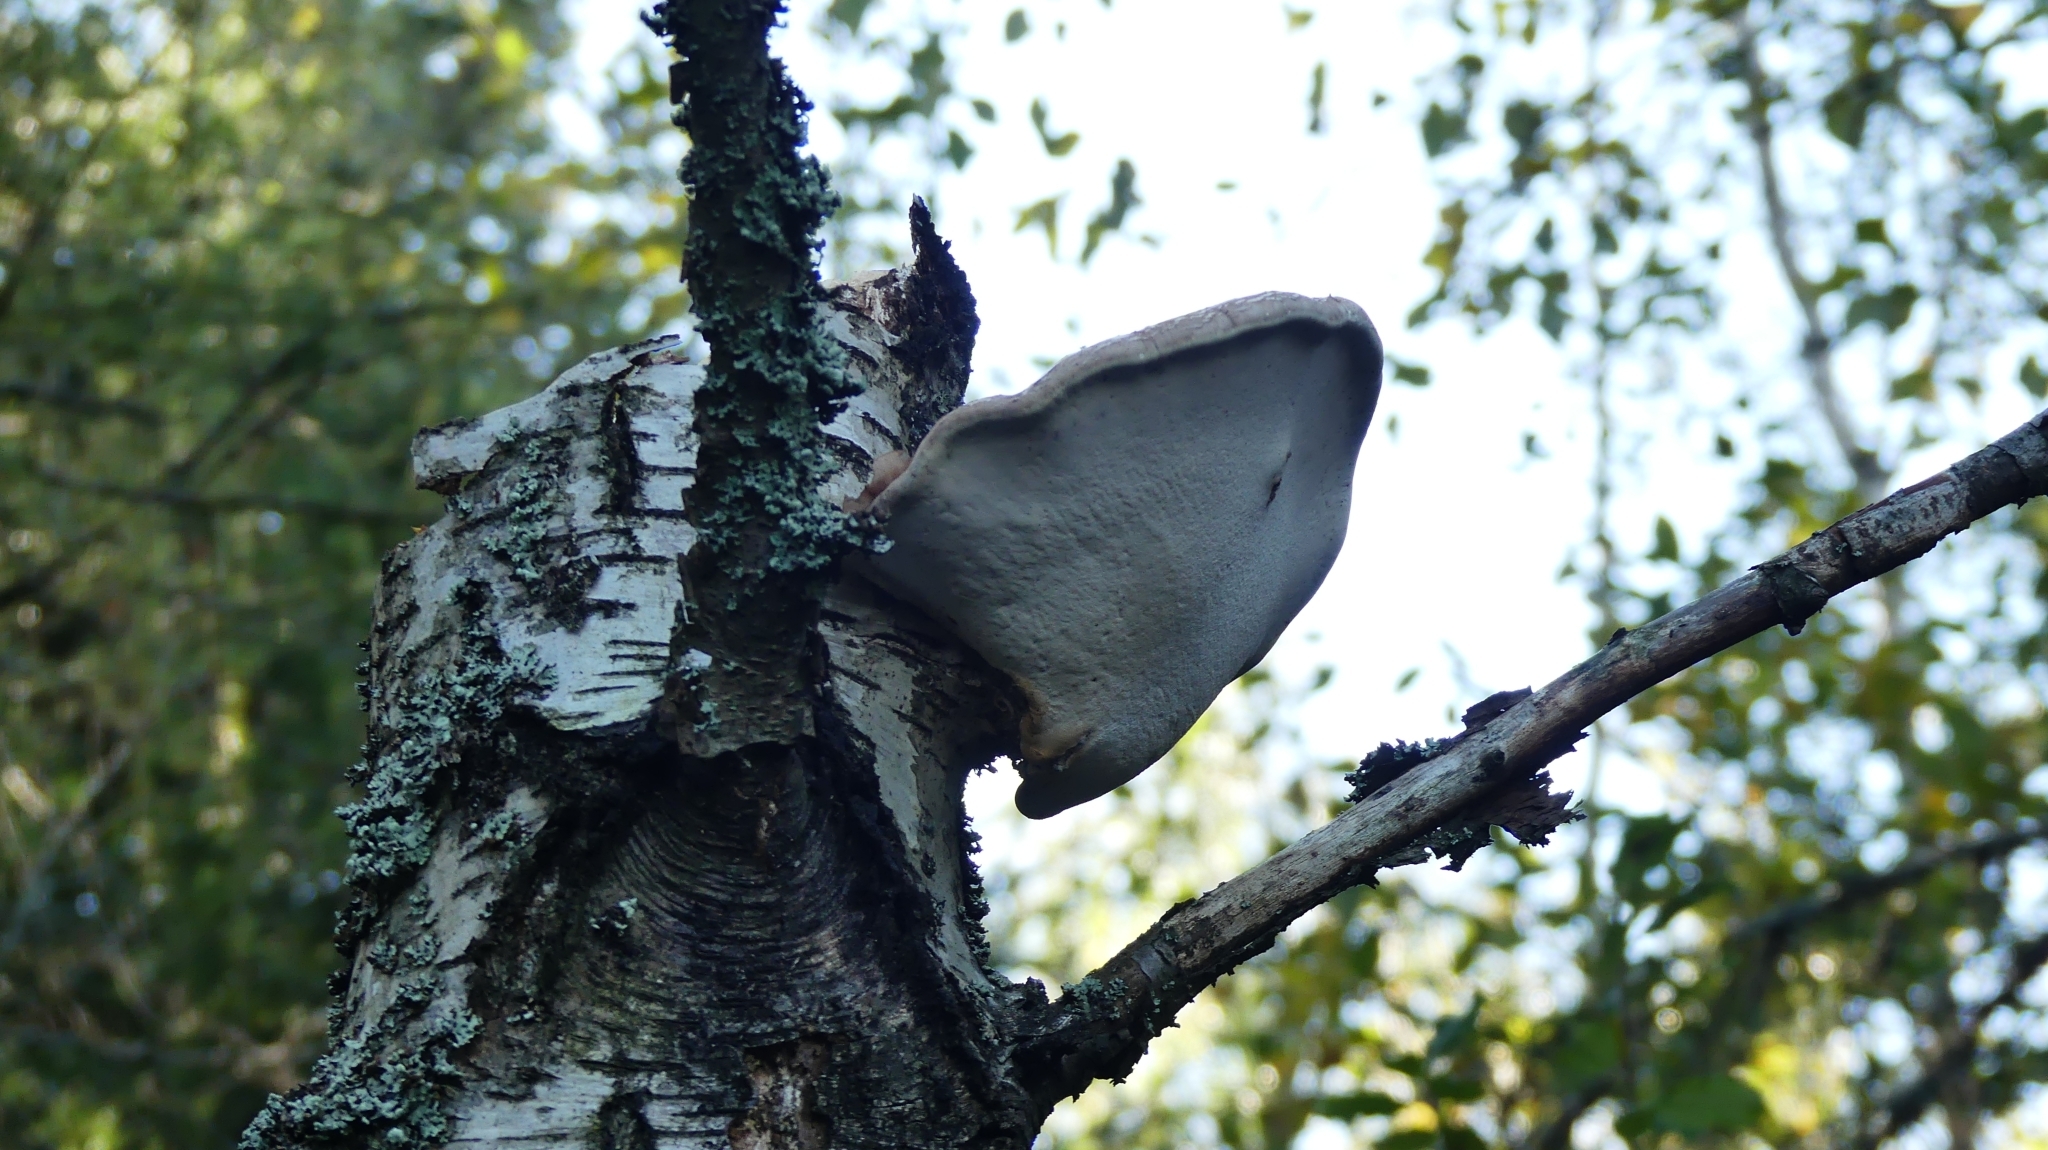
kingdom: Fungi
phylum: Basidiomycota
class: Agaricomycetes
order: Polyporales
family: Fomitopsidaceae
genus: Fomitopsis
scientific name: Fomitopsis betulina
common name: Birch polypore
